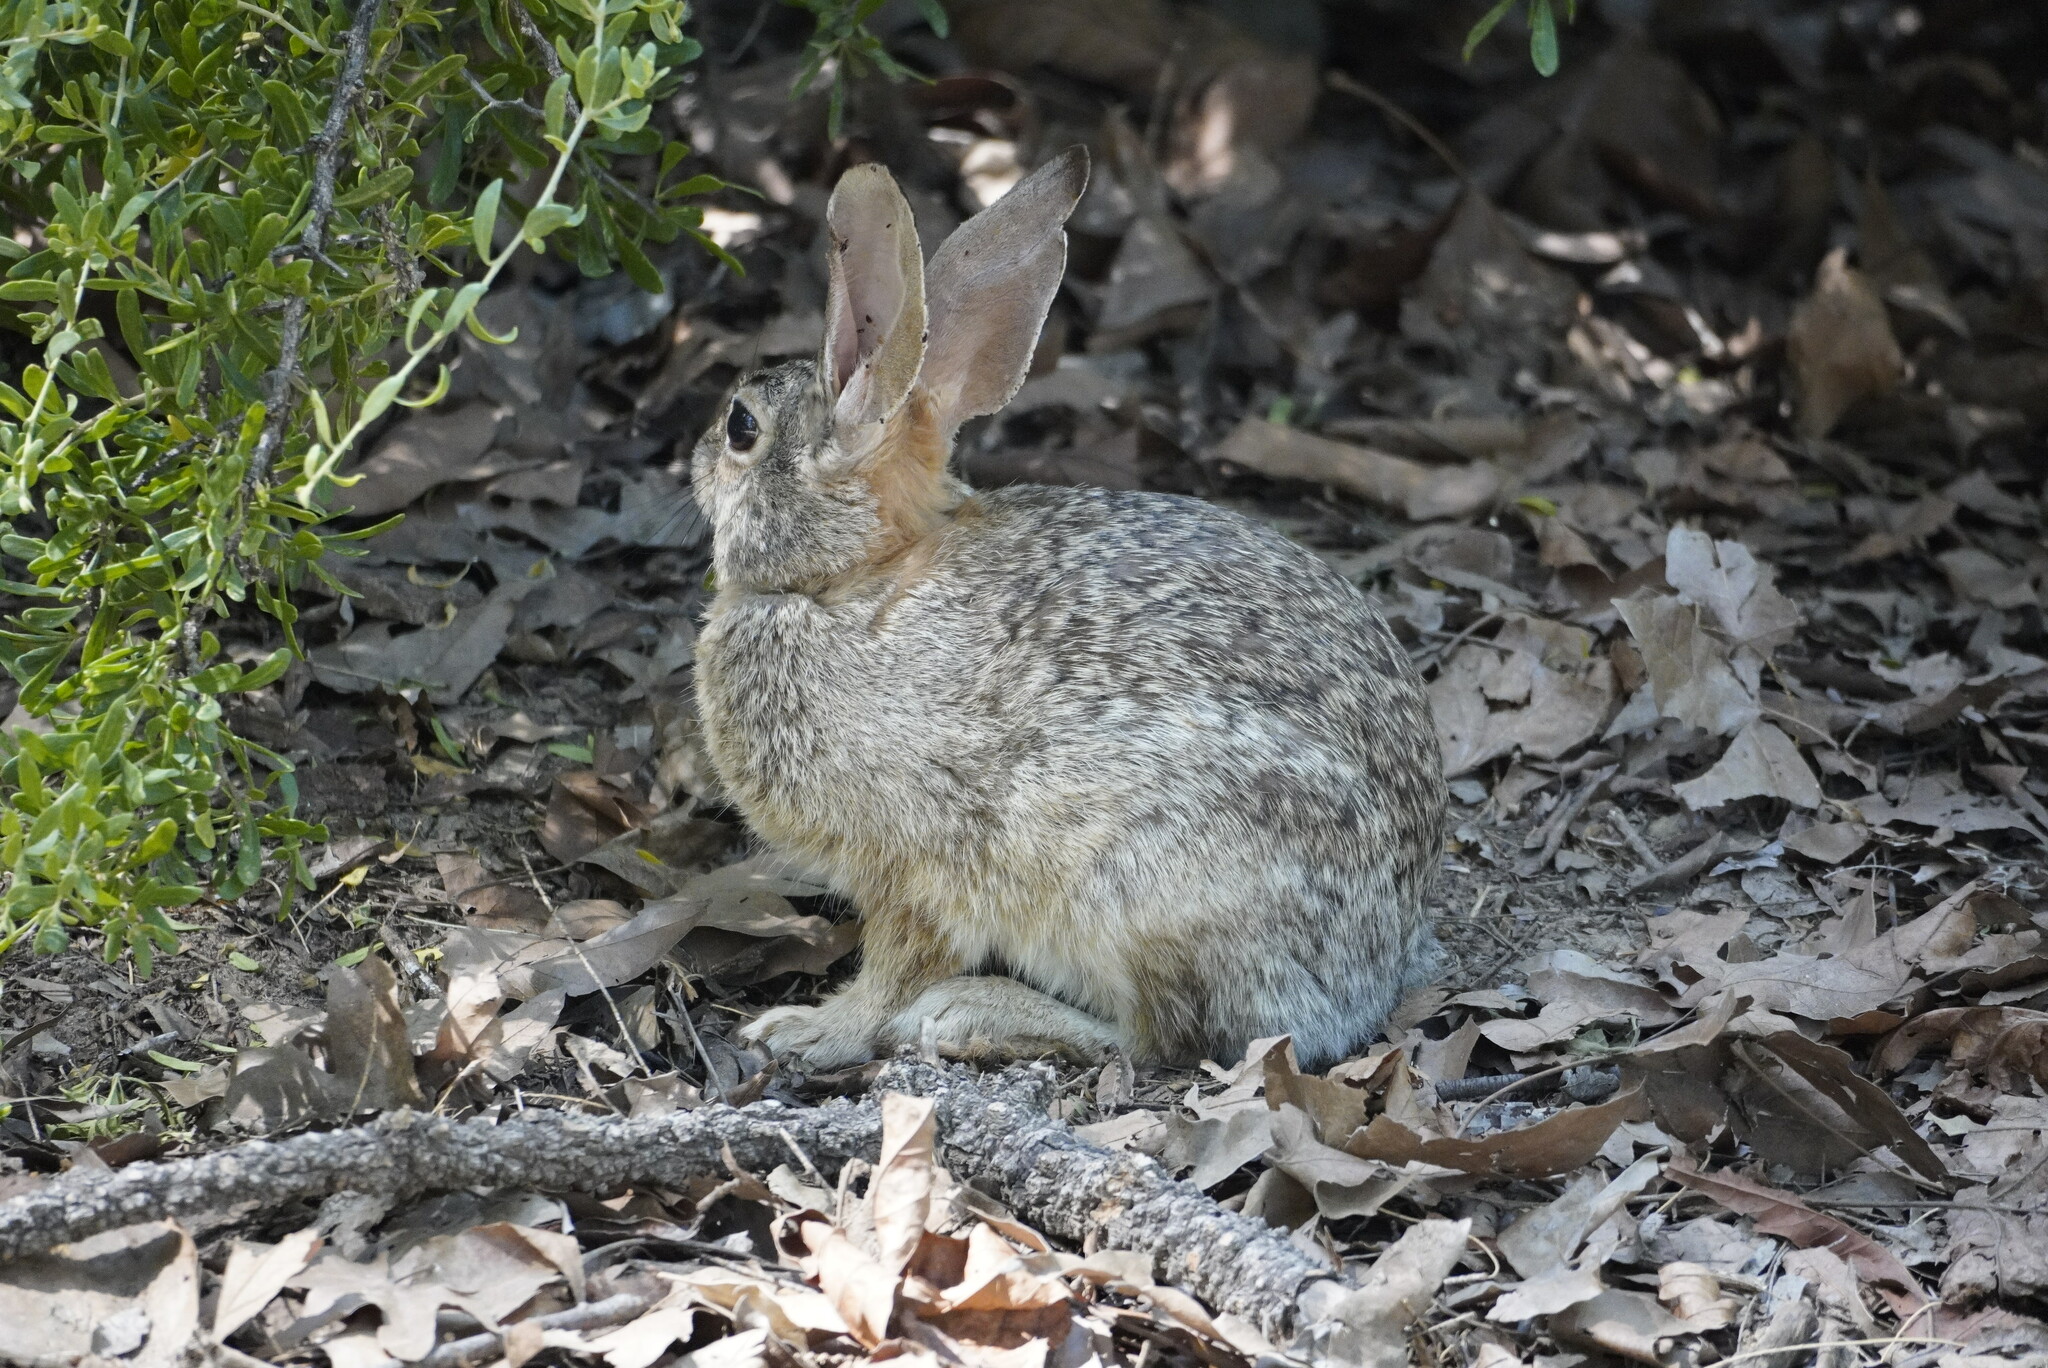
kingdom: Animalia
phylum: Chordata
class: Mammalia
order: Lagomorpha
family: Leporidae
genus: Sylvilagus
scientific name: Sylvilagus audubonii
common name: Desert cottontail
